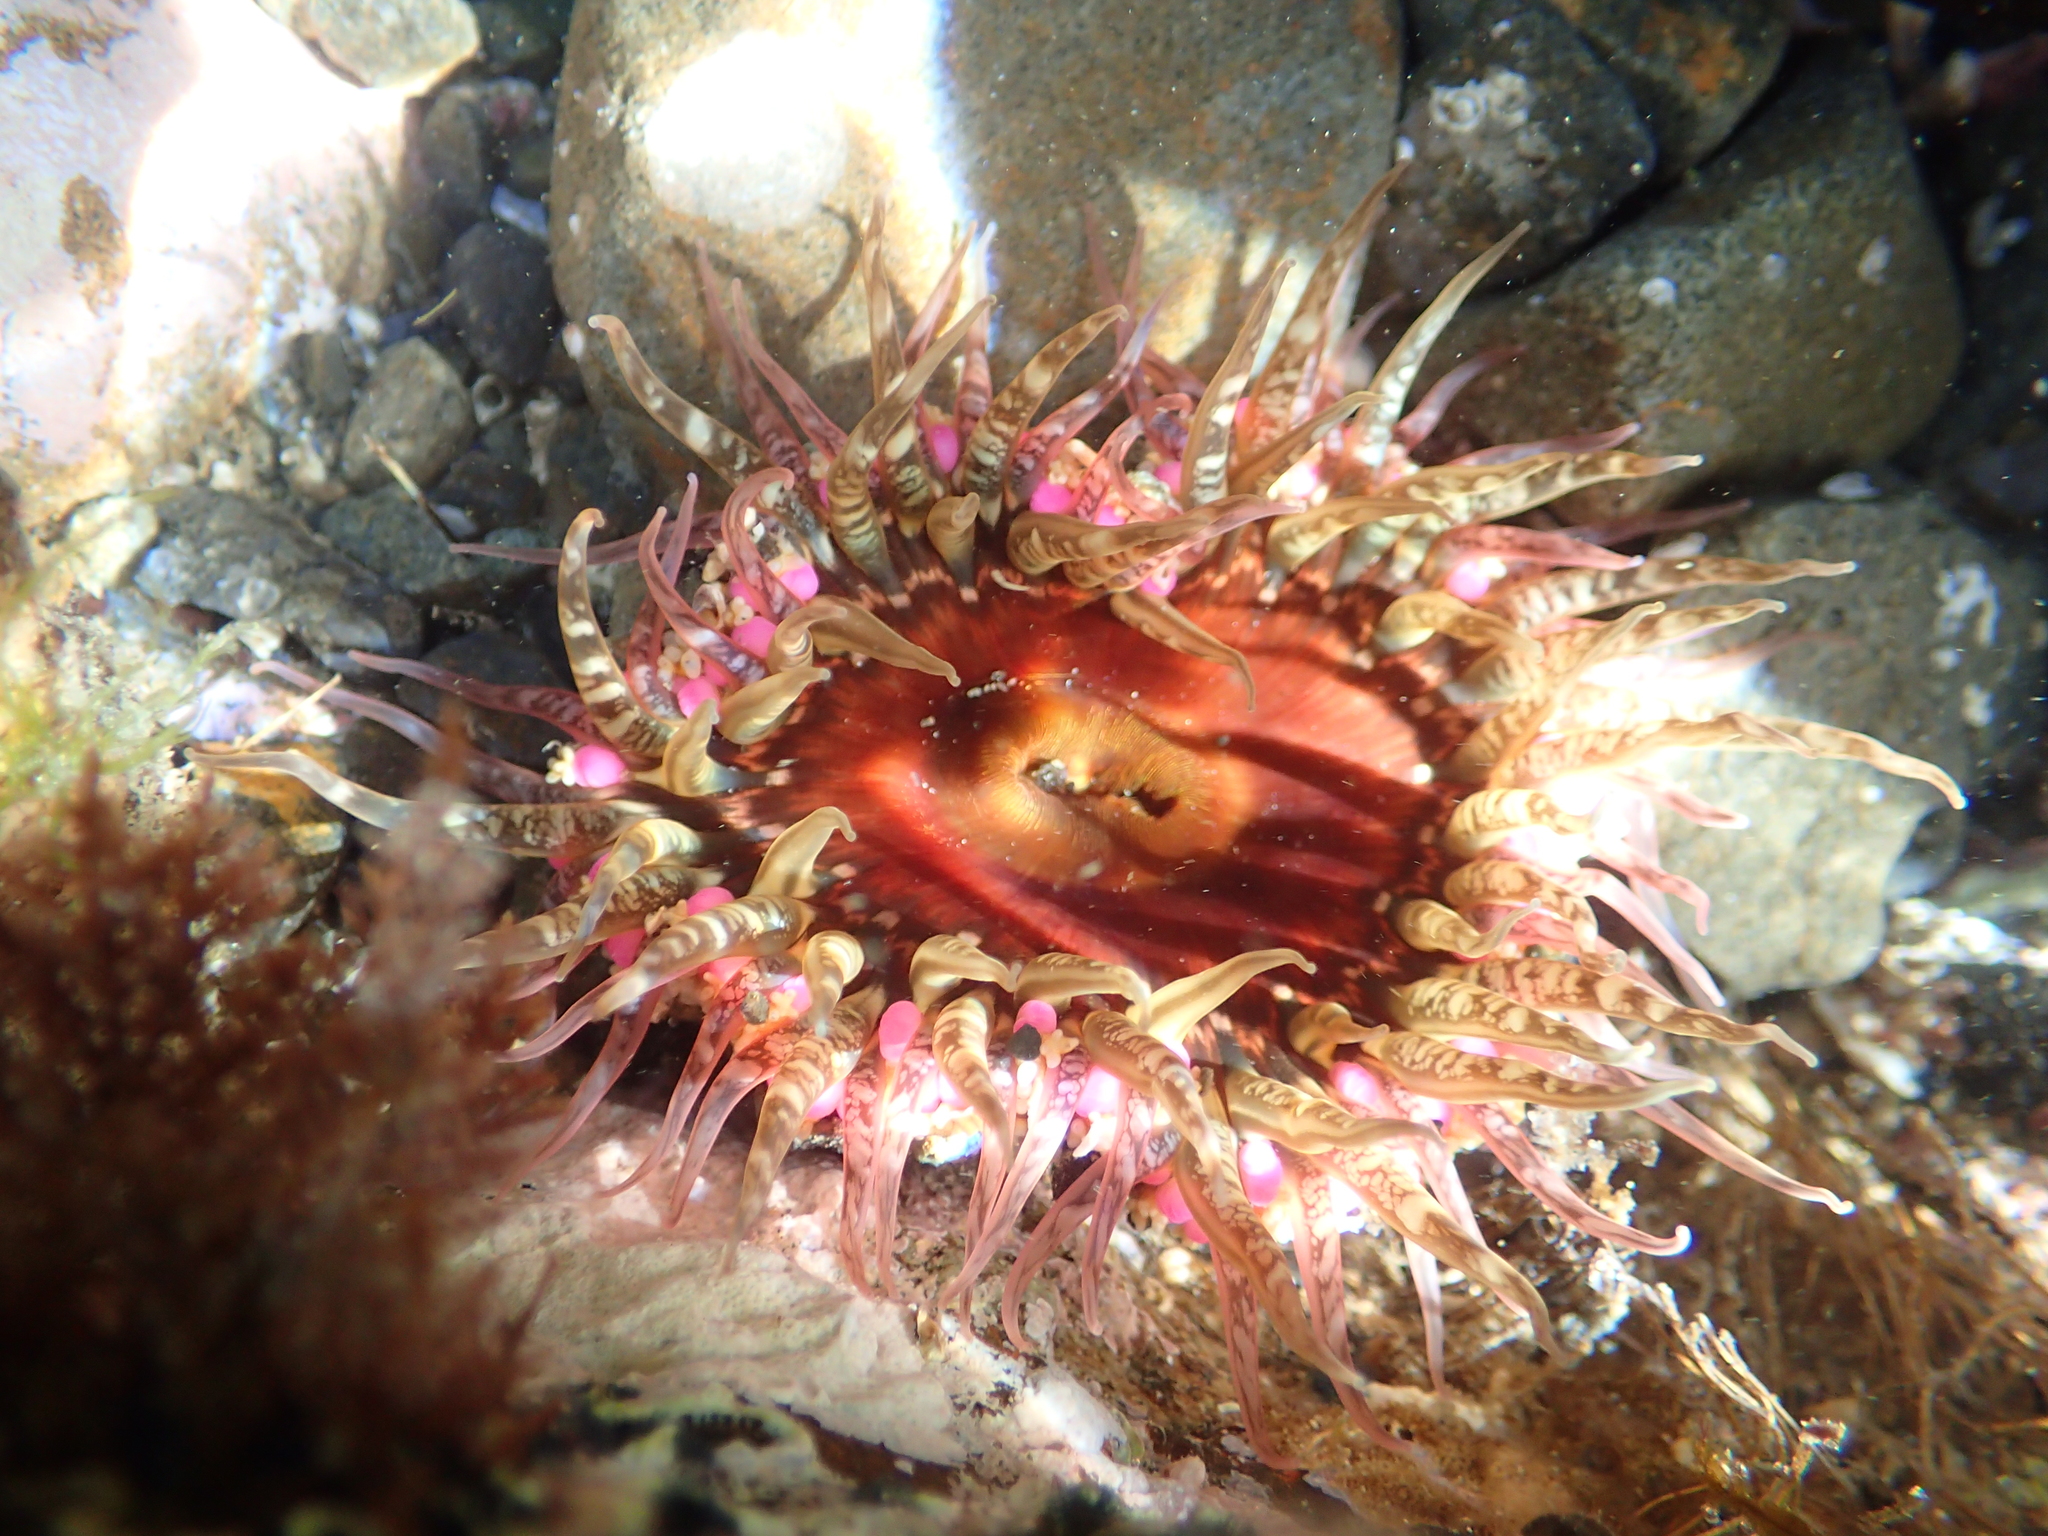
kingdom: Animalia
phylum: Cnidaria
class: Anthozoa
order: Actiniaria
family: Actiniidae
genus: Oulactis
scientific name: Oulactis muscosa
